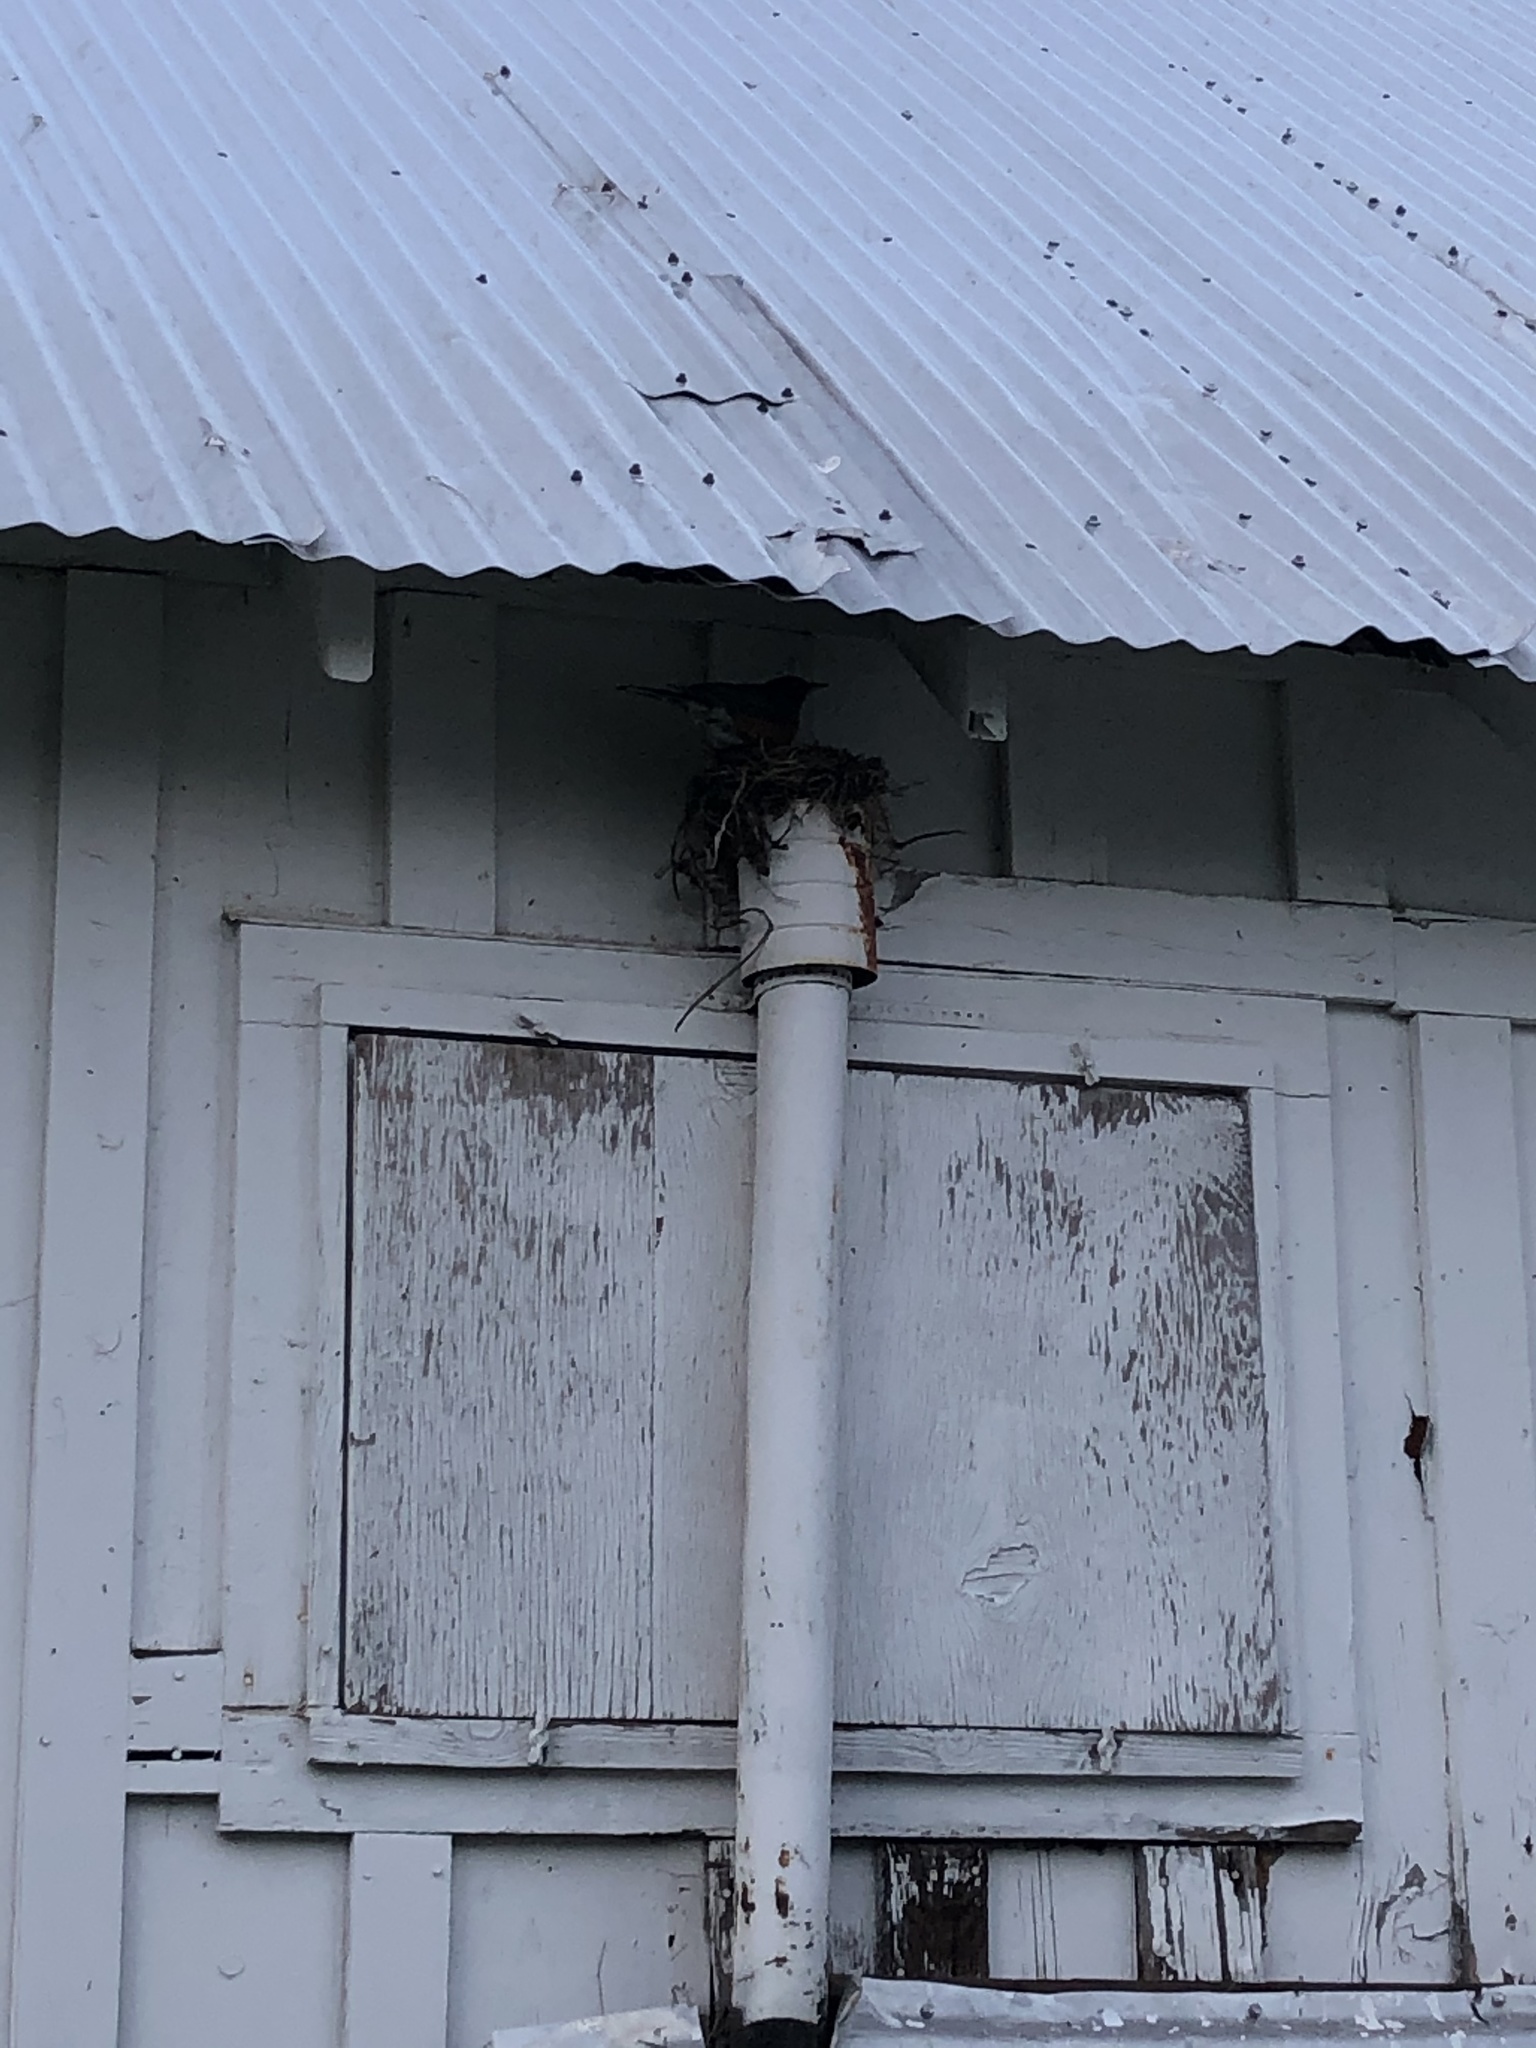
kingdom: Animalia
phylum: Chordata
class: Aves
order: Passeriformes
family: Turdidae
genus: Turdus
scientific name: Turdus migratorius
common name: American robin
